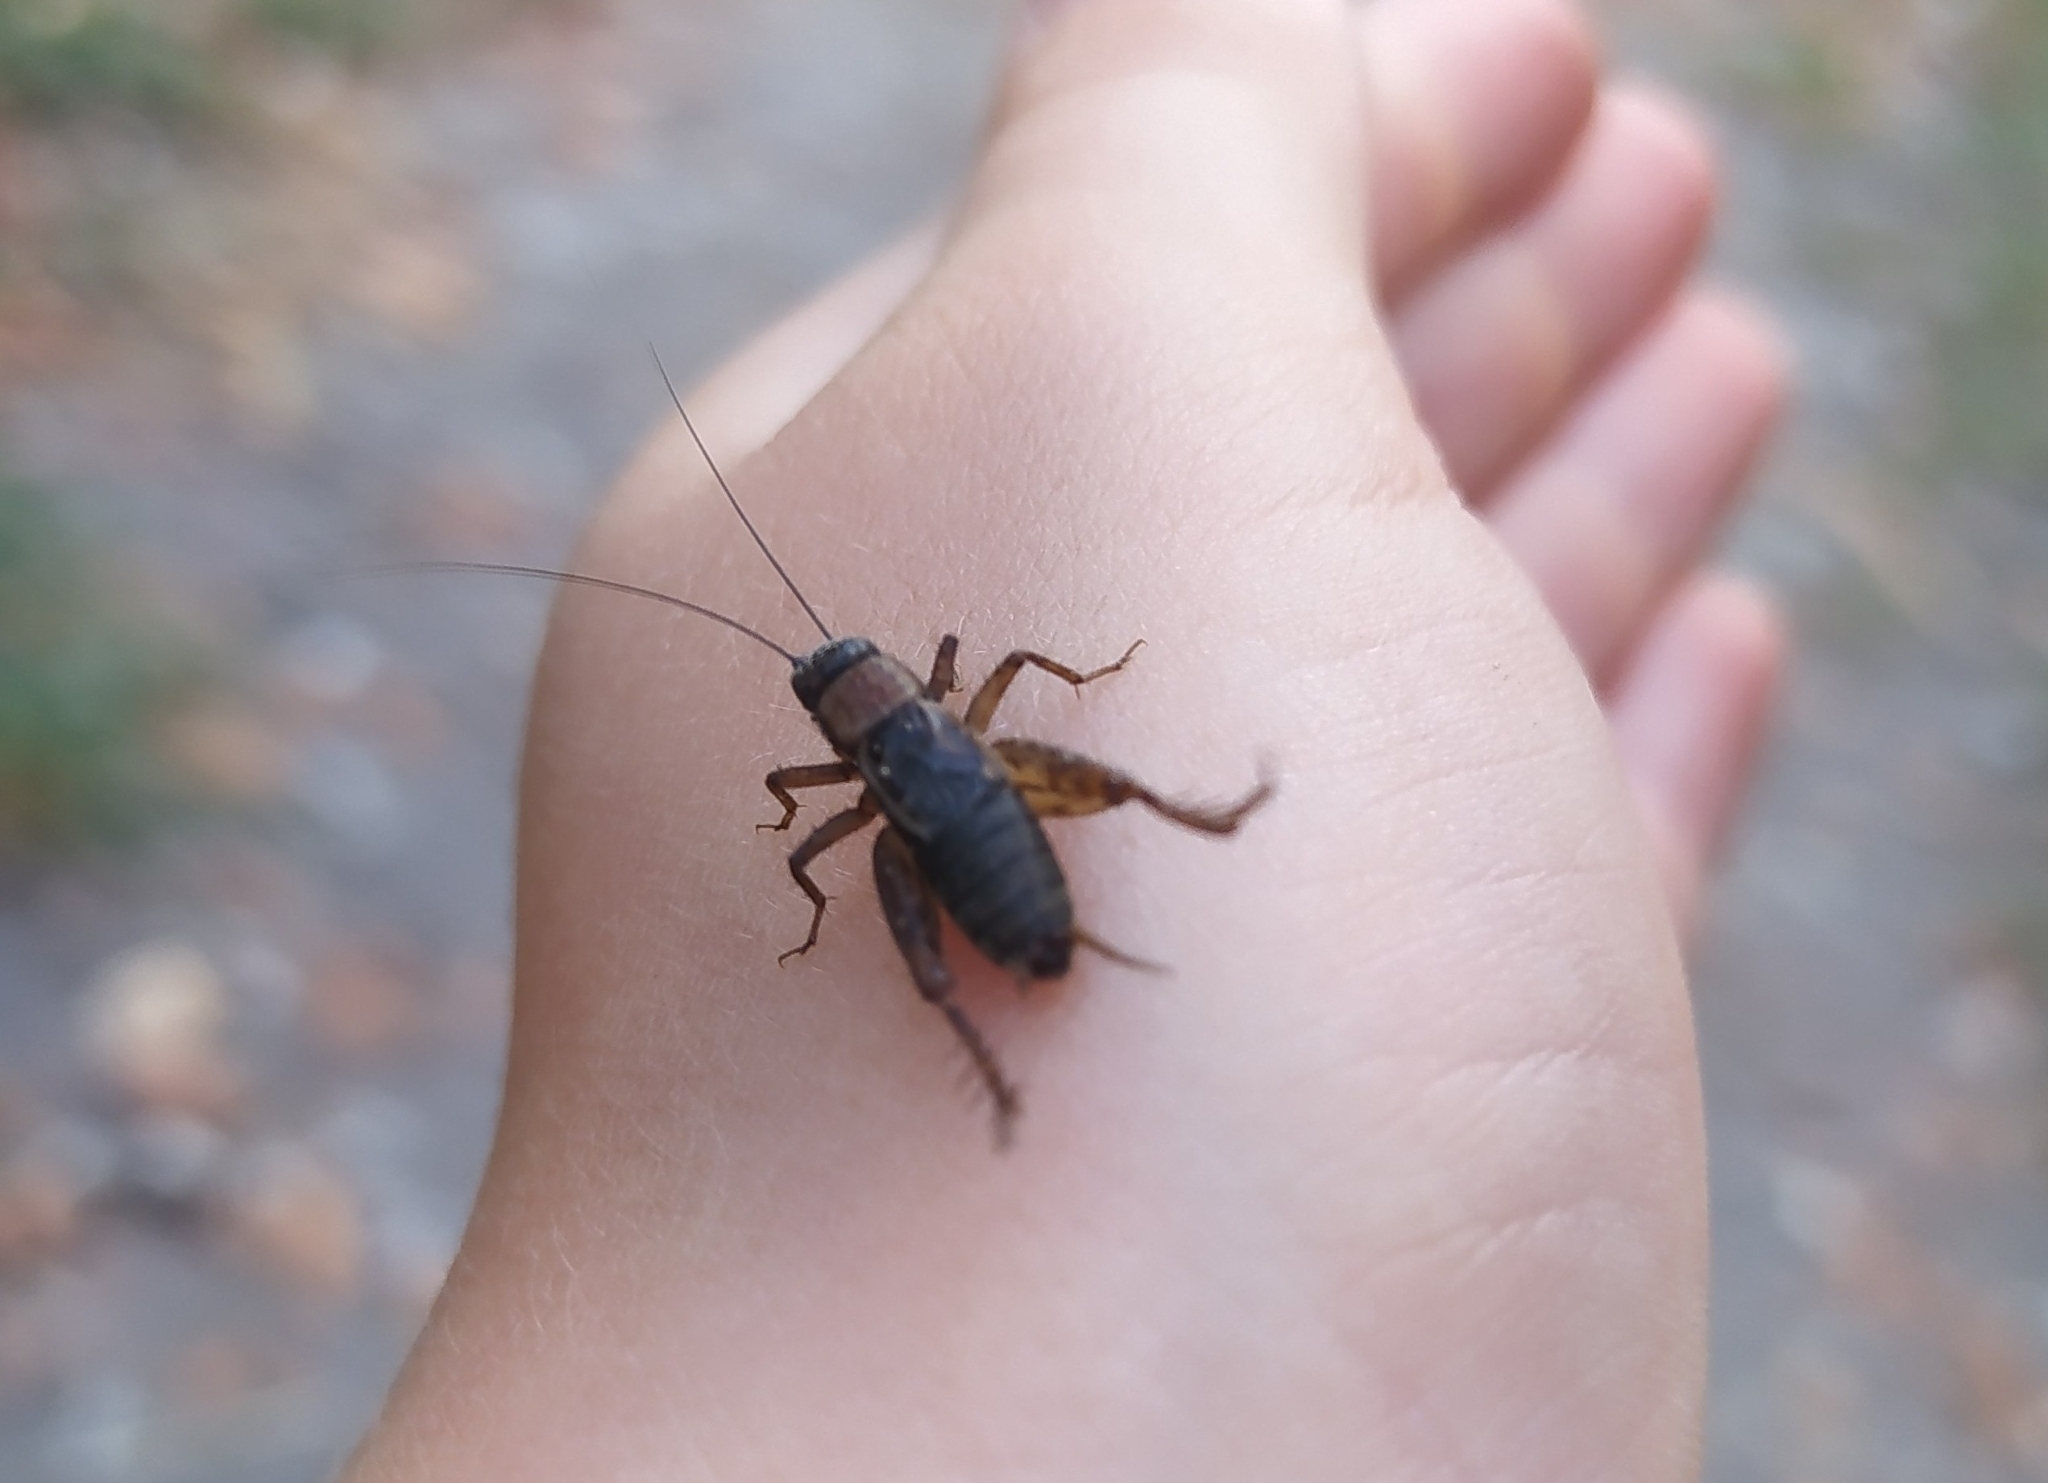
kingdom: Animalia
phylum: Arthropoda
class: Insecta
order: Orthoptera
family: Trigonidiidae
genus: Nemobius
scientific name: Nemobius sylvestris
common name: Wood-cricket
